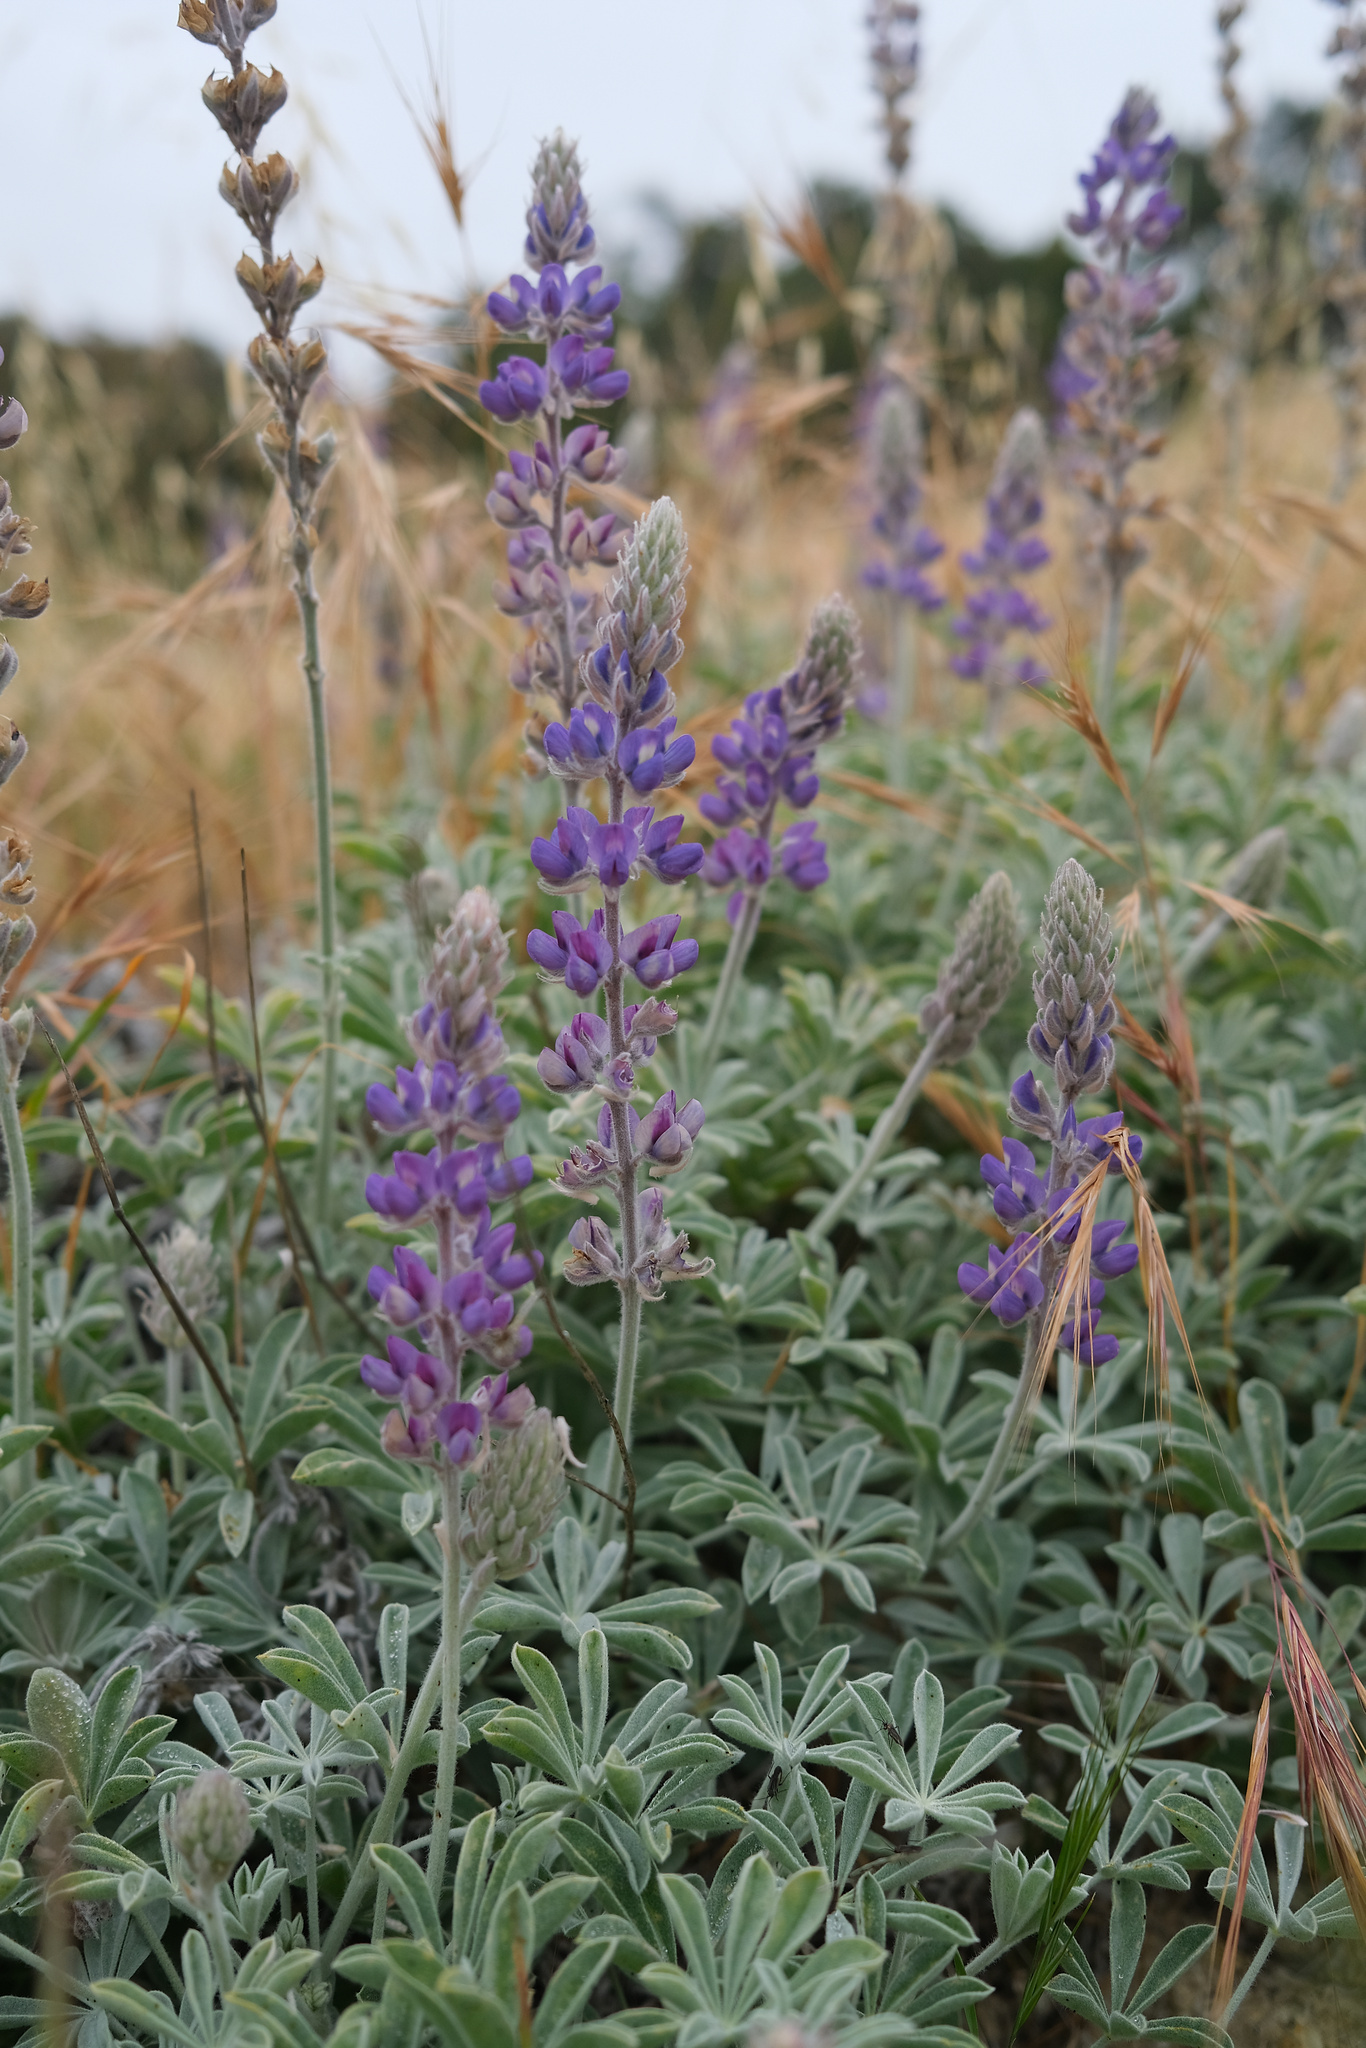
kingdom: Plantae
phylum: Tracheophyta
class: Magnoliopsida
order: Fabales
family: Fabaceae
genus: Lupinus
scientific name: Lupinus ludovicianus
